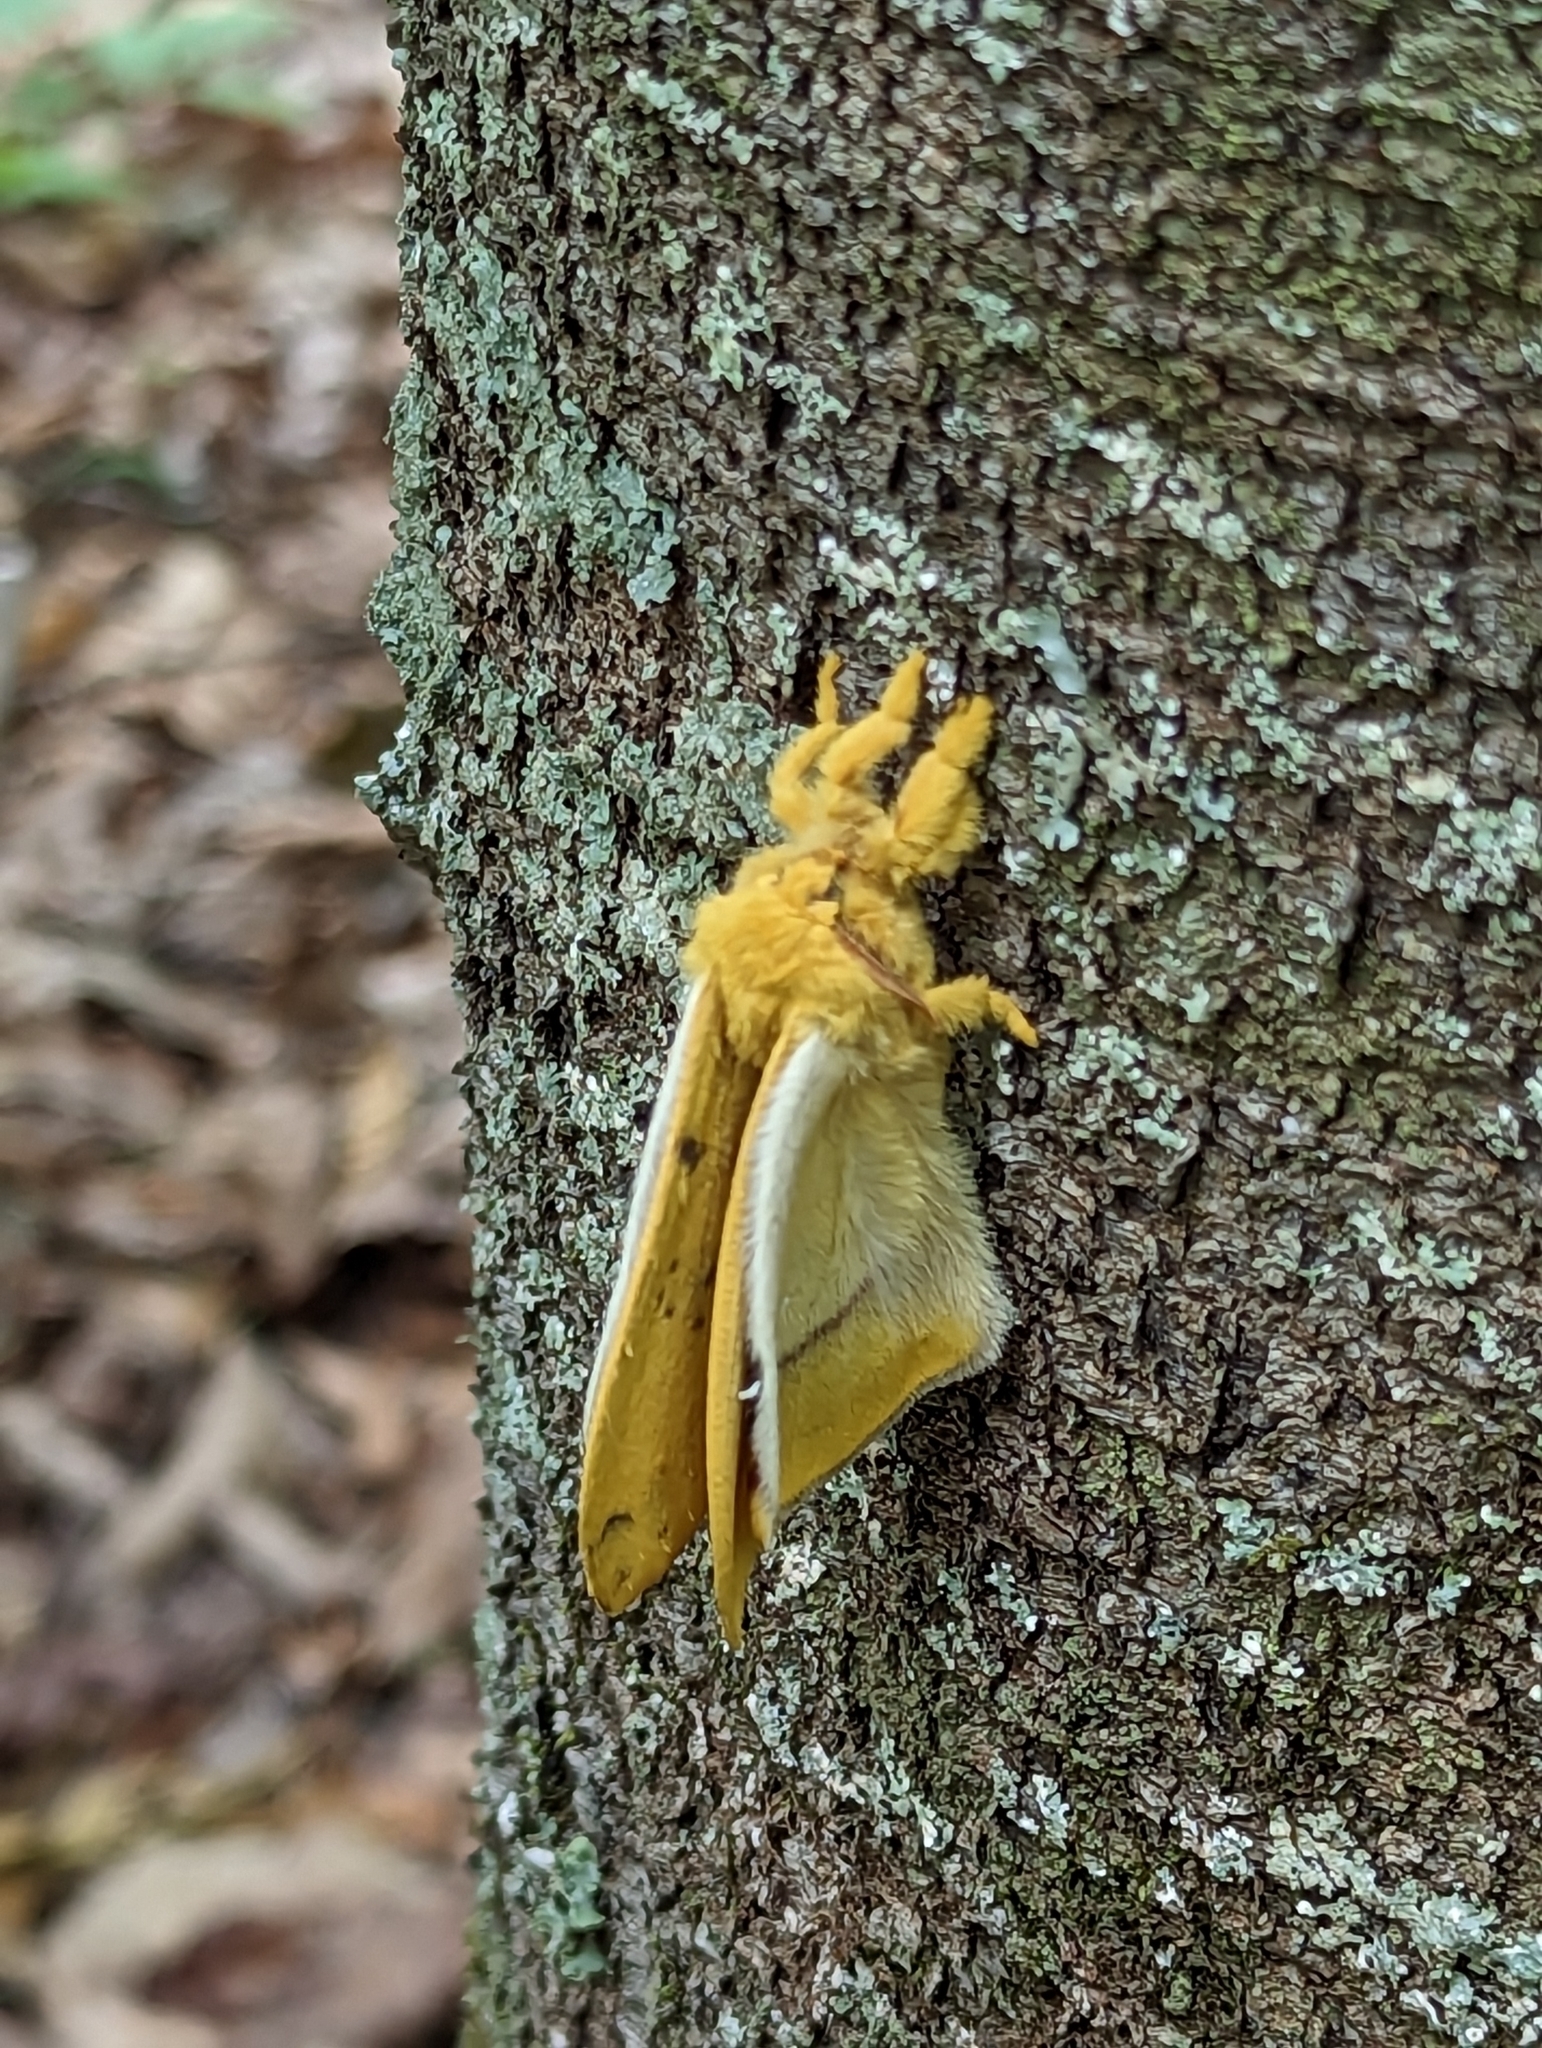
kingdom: Animalia
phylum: Arthropoda
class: Insecta
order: Lepidoptera
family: Saturniidae
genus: Automeris
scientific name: Automeris io
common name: Io moth
